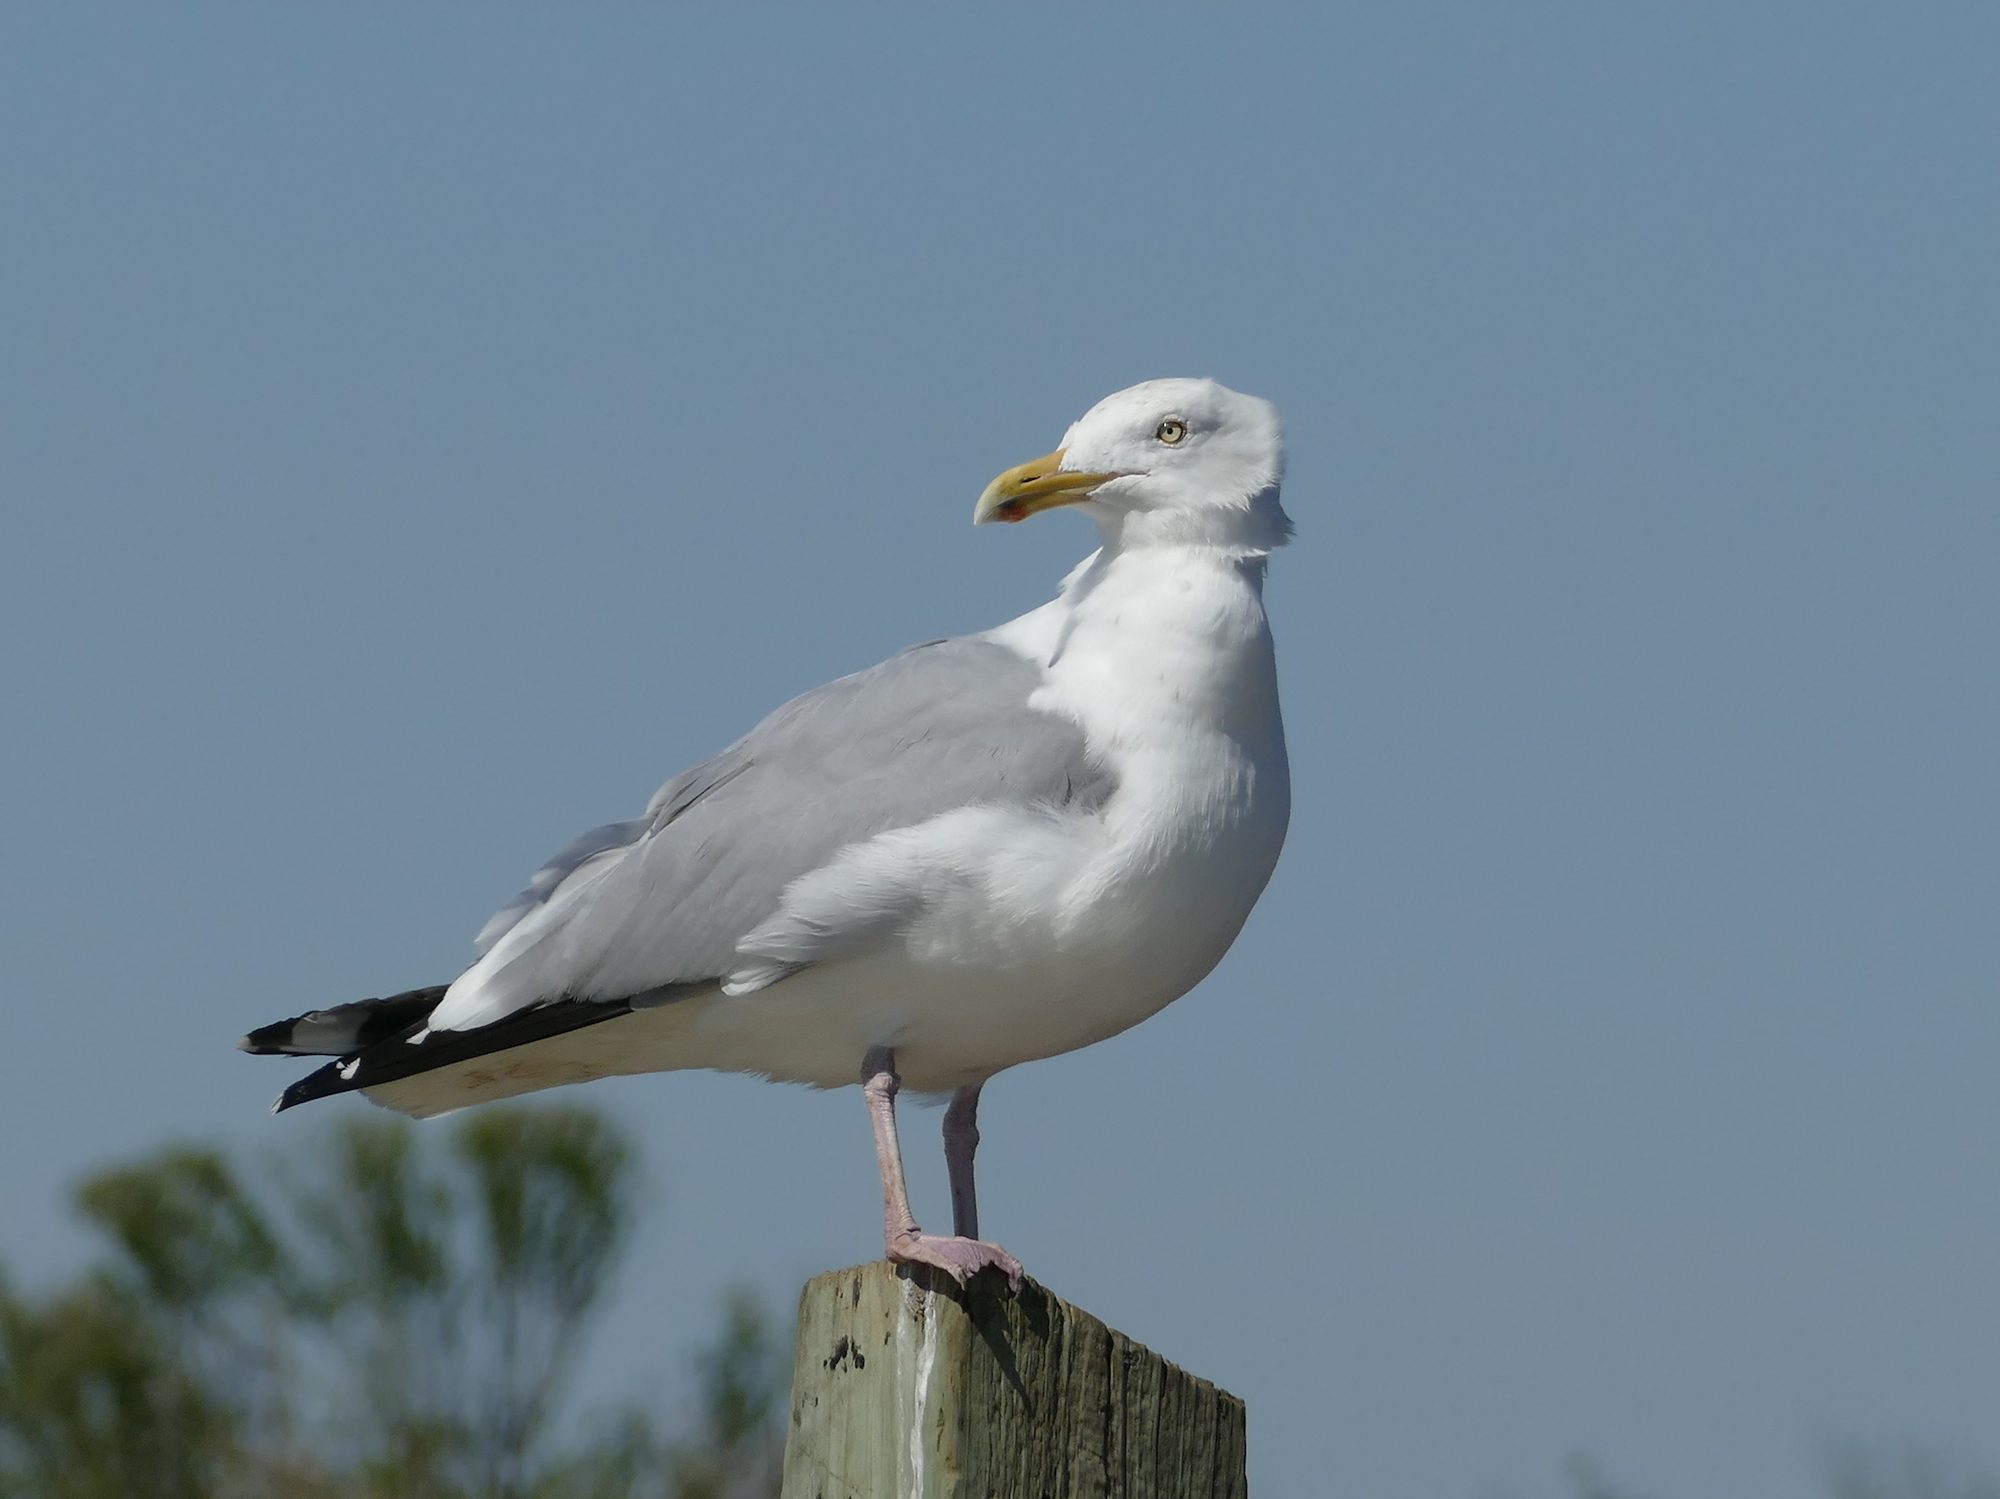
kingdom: Animalia
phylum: Chordata
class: Aves
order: Charadriiformes
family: Laridae
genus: Larus
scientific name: Larus argentatus
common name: Herring gull
